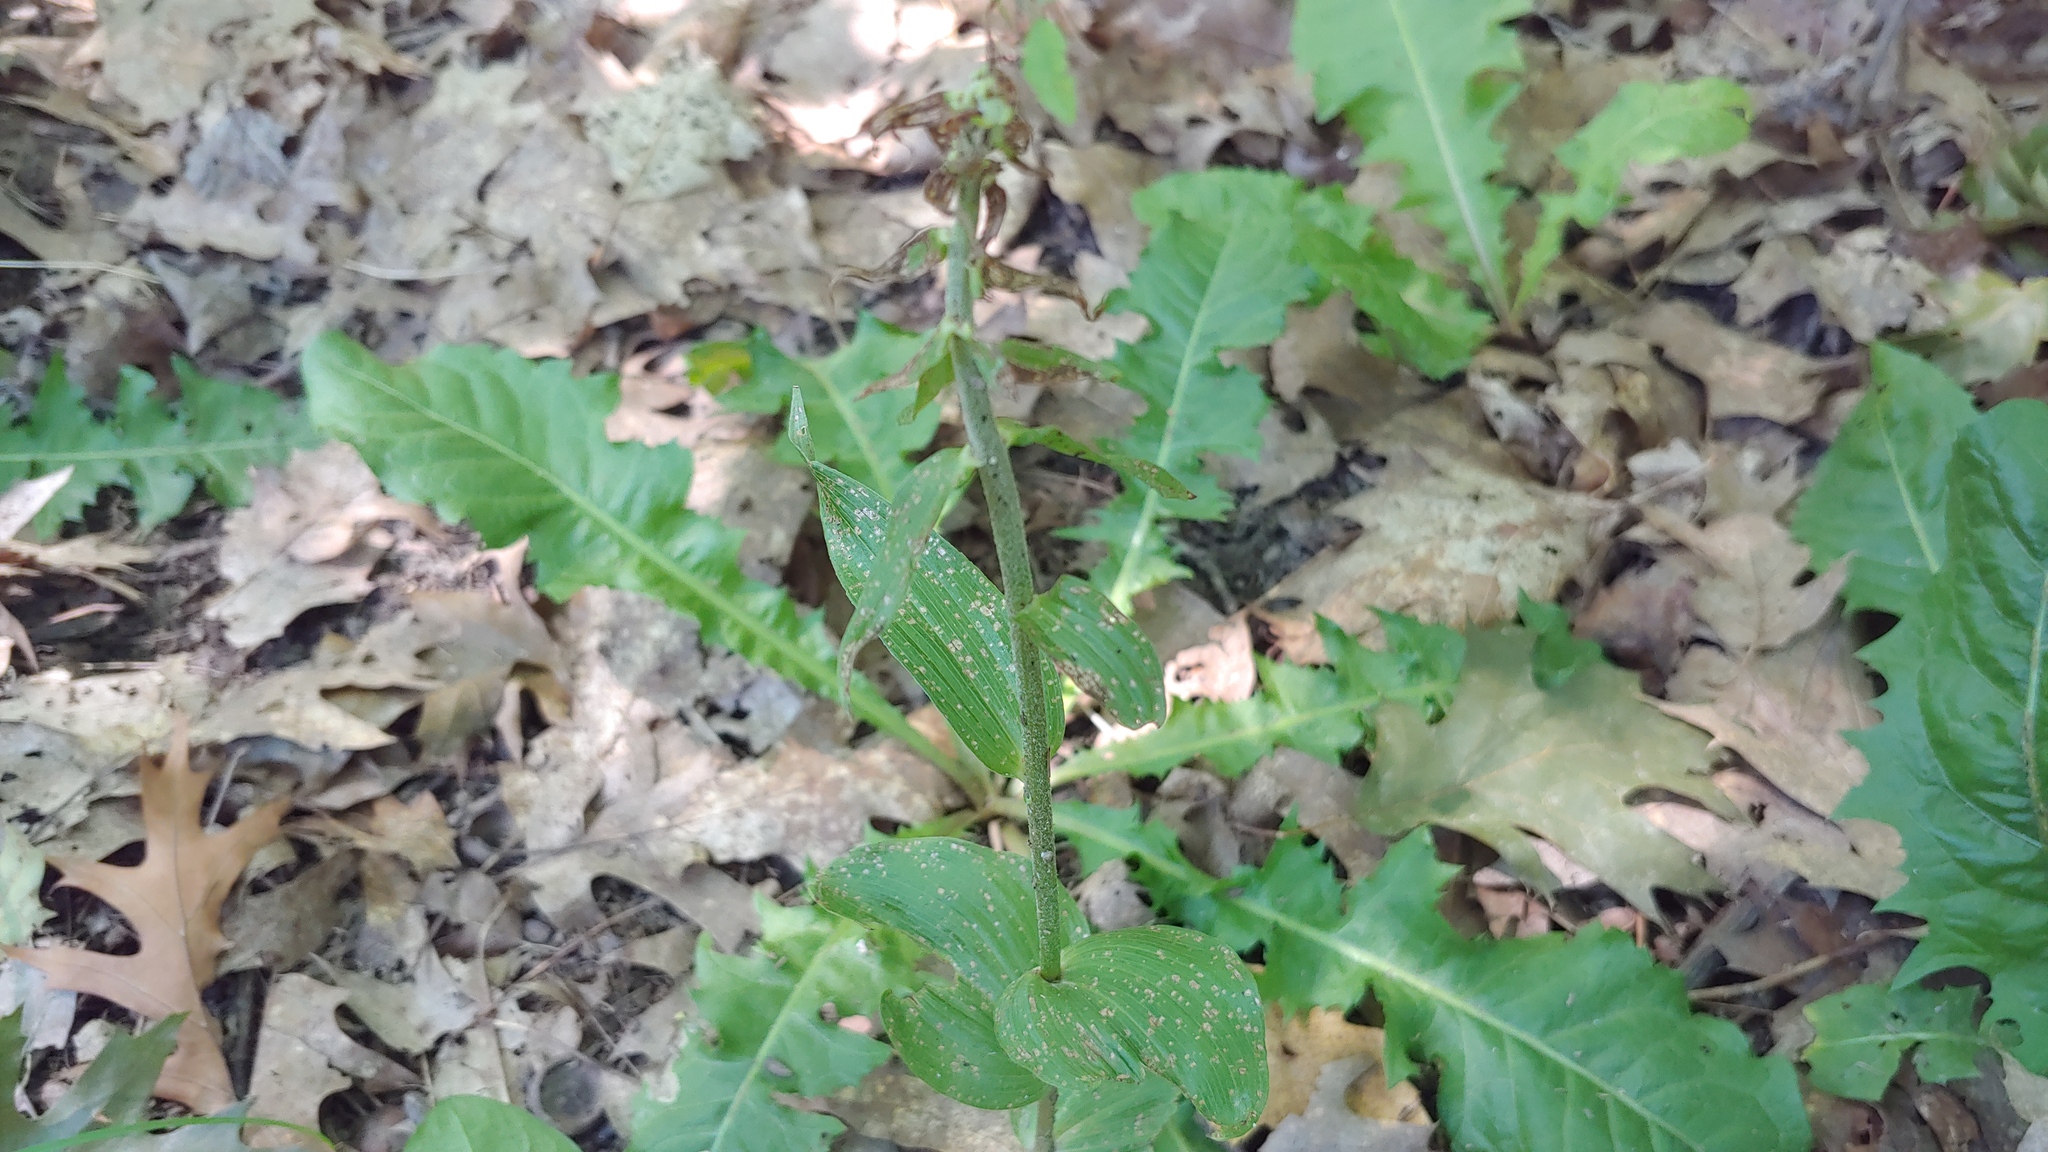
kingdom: Plantae
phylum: Tracheophyta
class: Liliopsida
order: Asparagales
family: Orchidaceae
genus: Epipactis
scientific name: Epipactis helleborine
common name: Broad-leaved helleborine
